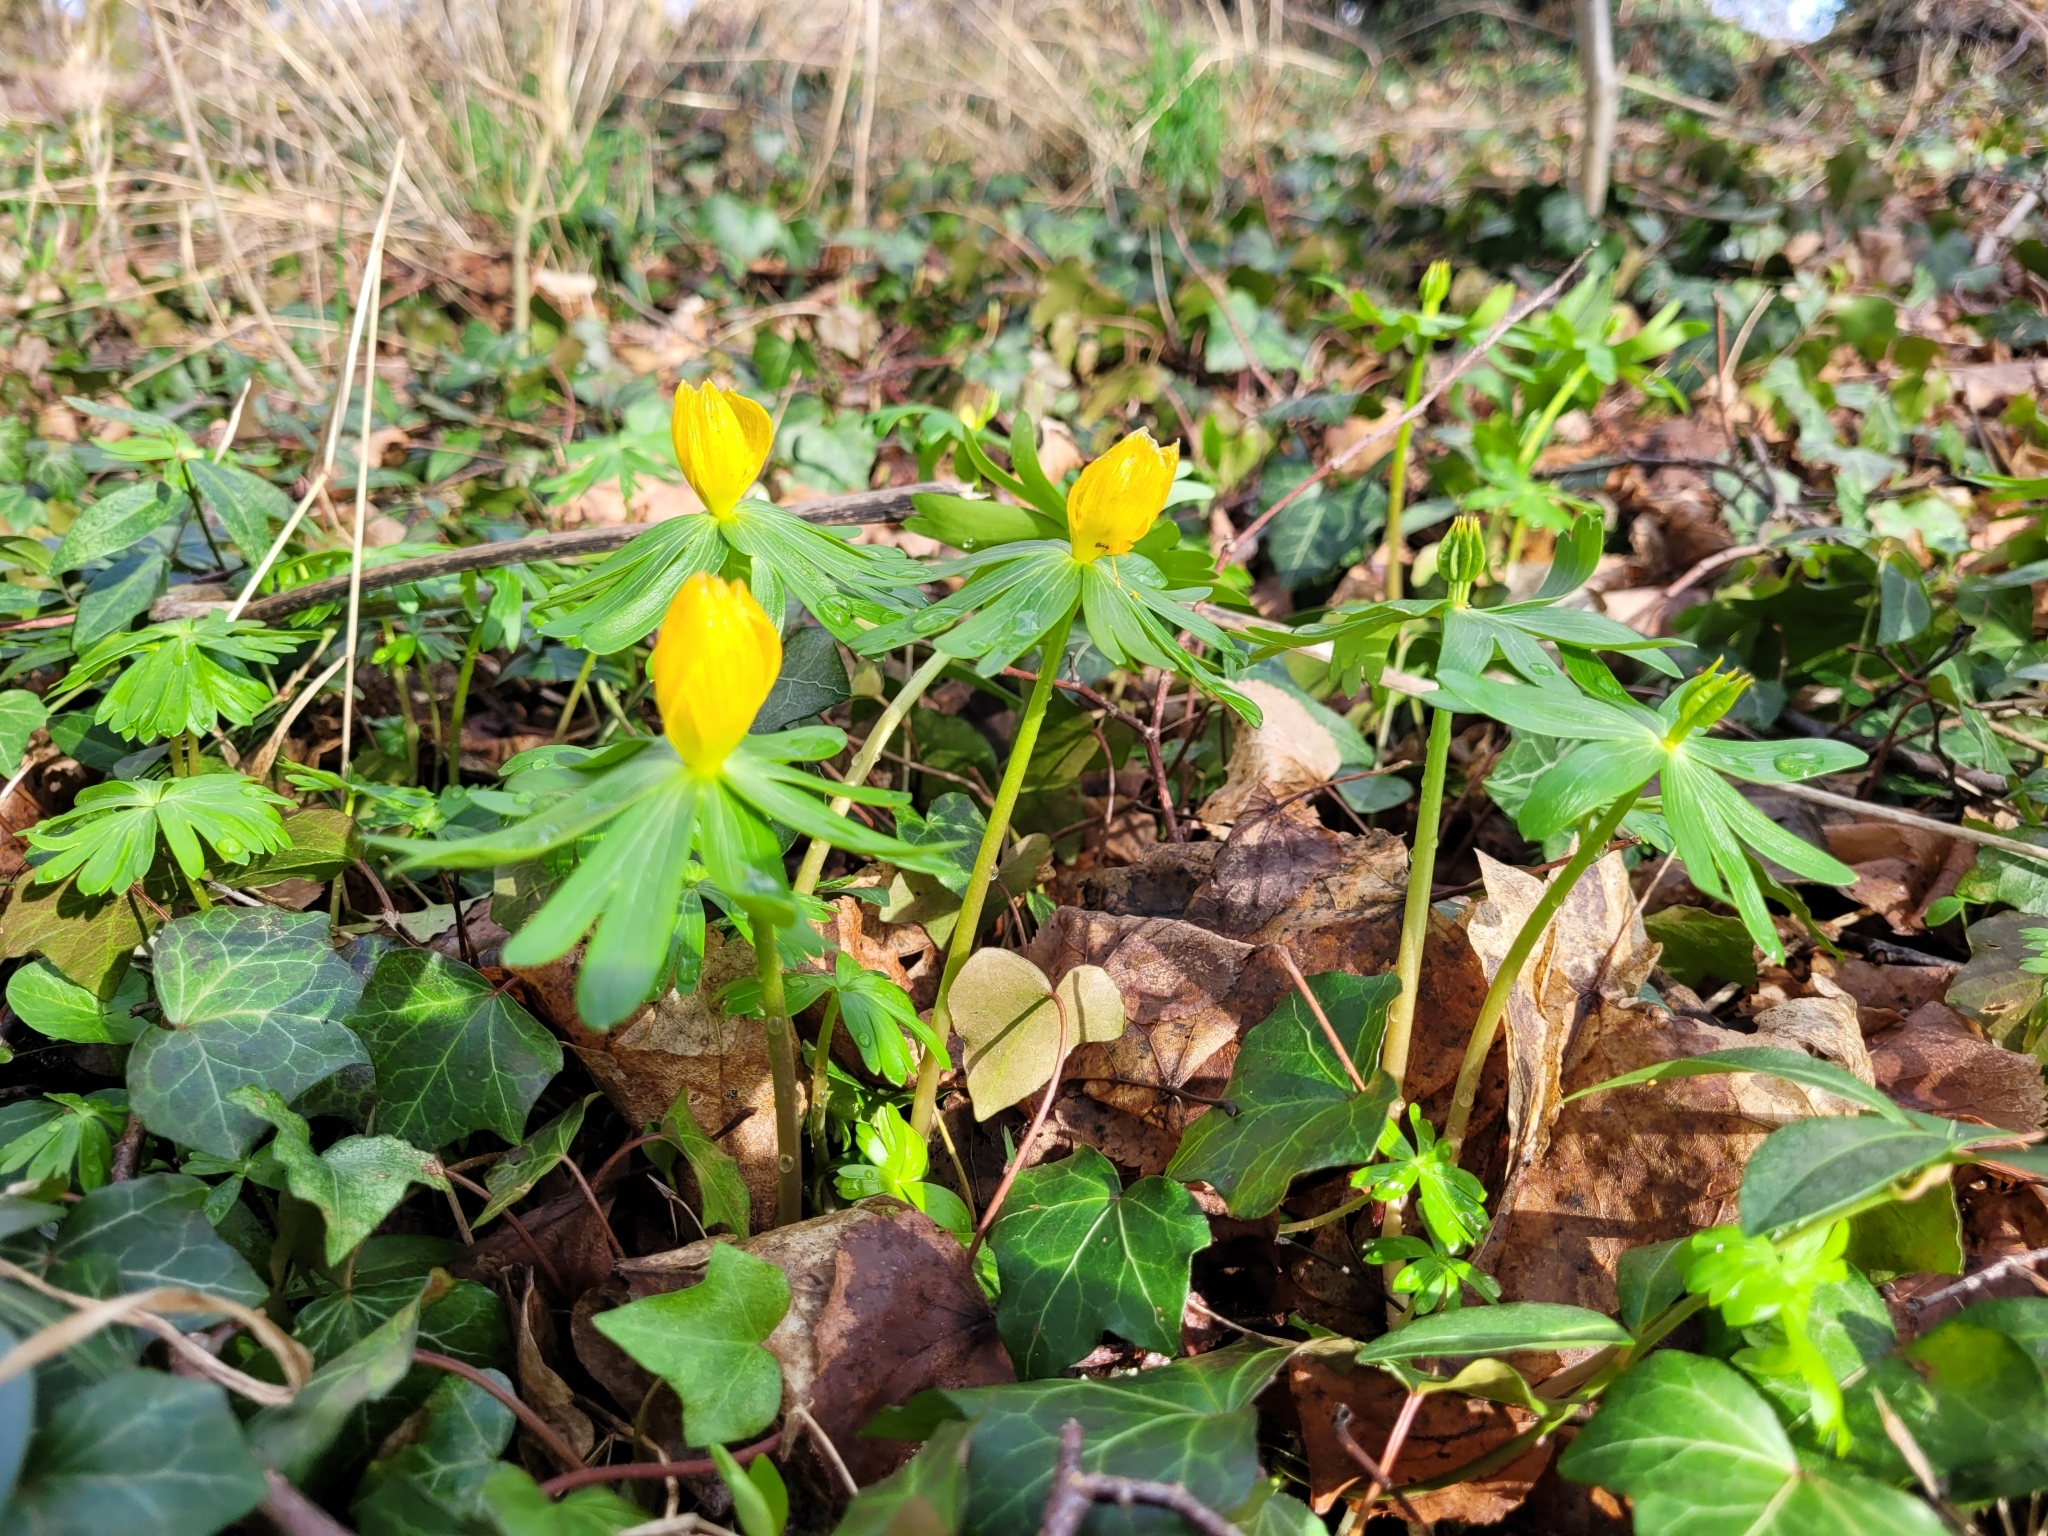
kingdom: Plantae
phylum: Tracheophyta
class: Magnoliopsida
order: Ranunculales
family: Ranunculaceae
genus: Eranthis
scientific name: Eranthis hyemalis
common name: Winter aconite
